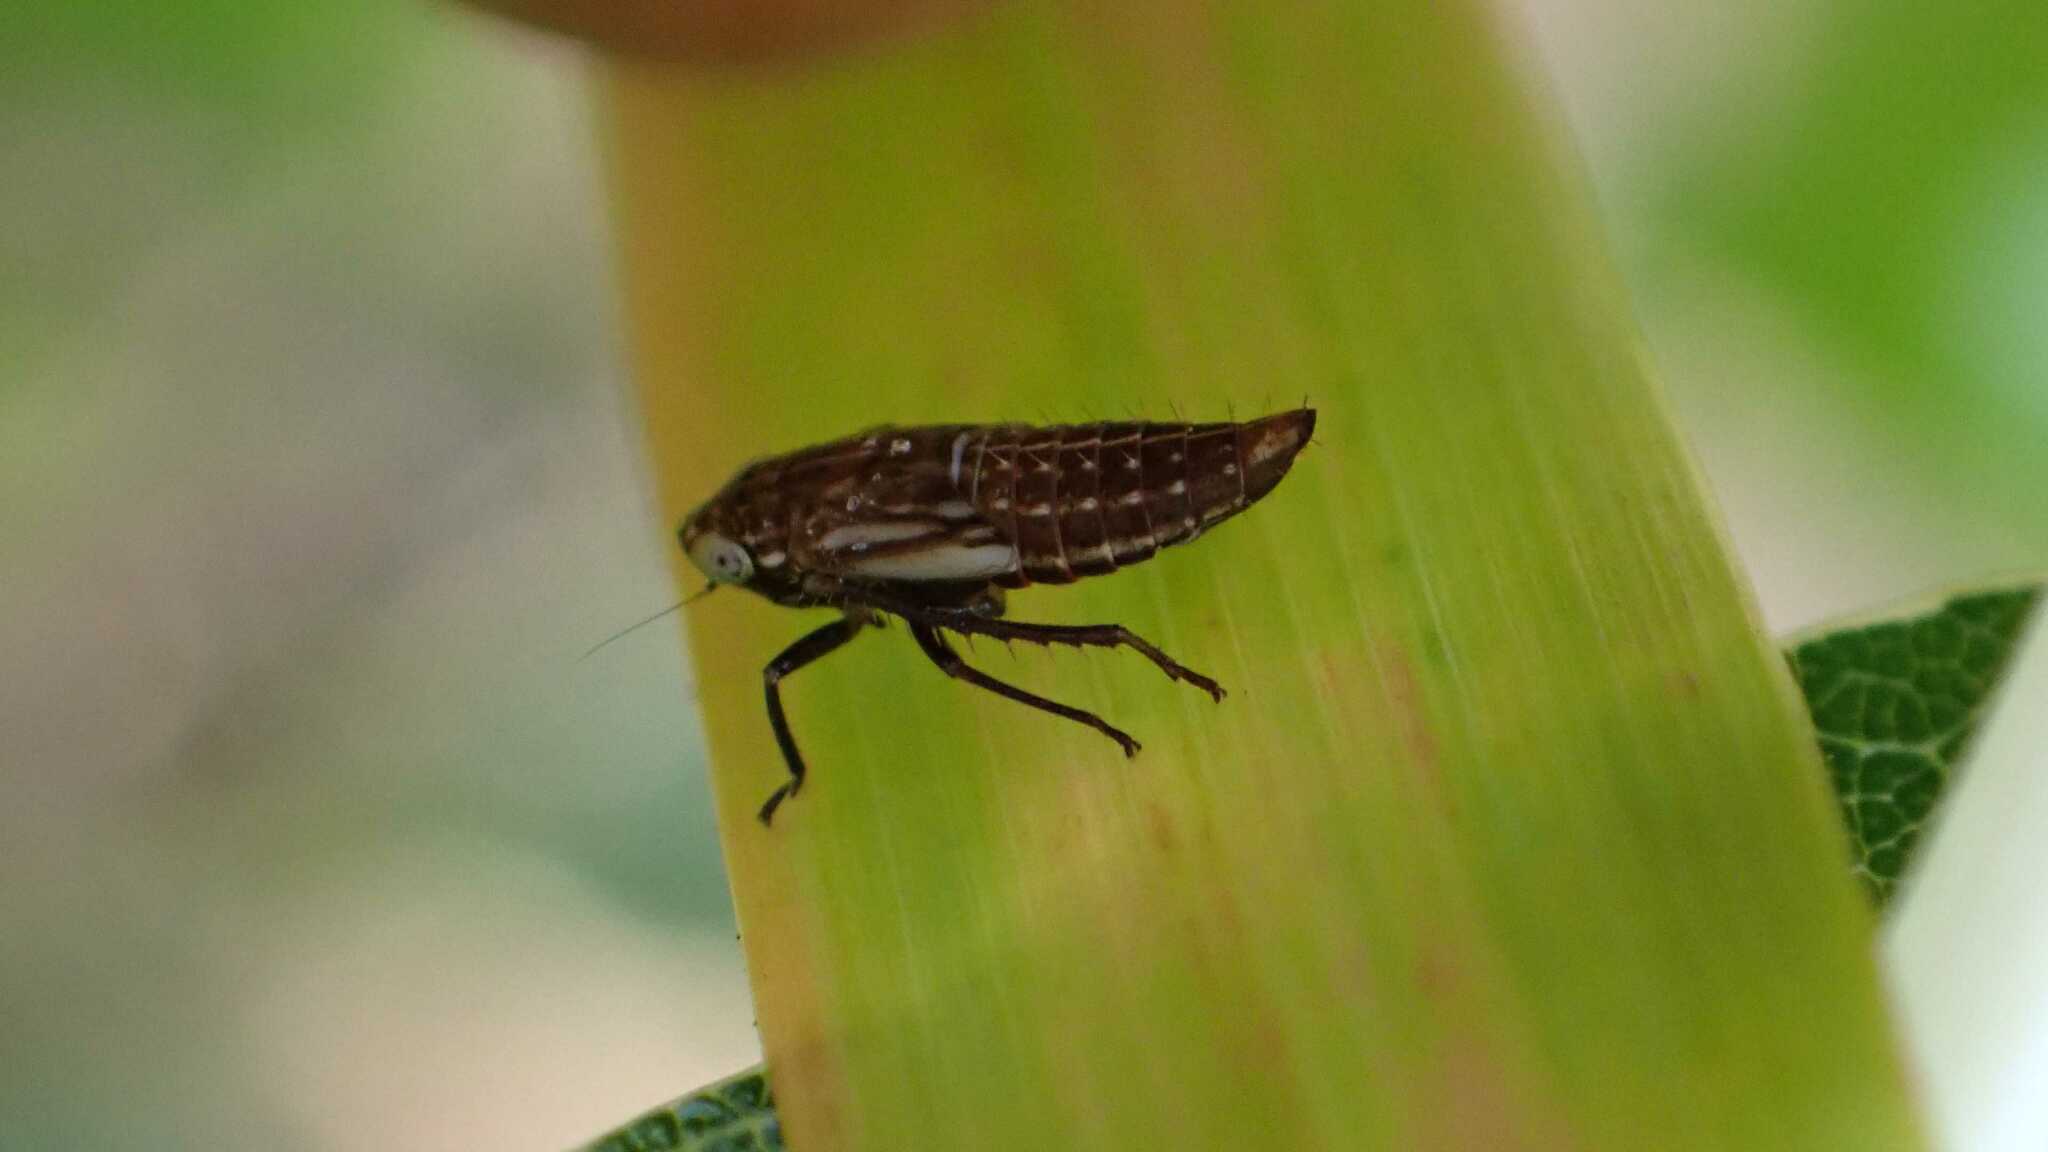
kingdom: Animalia
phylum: Arthropoda
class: Insecta
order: Hemiptera
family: Cicadellidae
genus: Allygus
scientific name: Allygus maculatus
